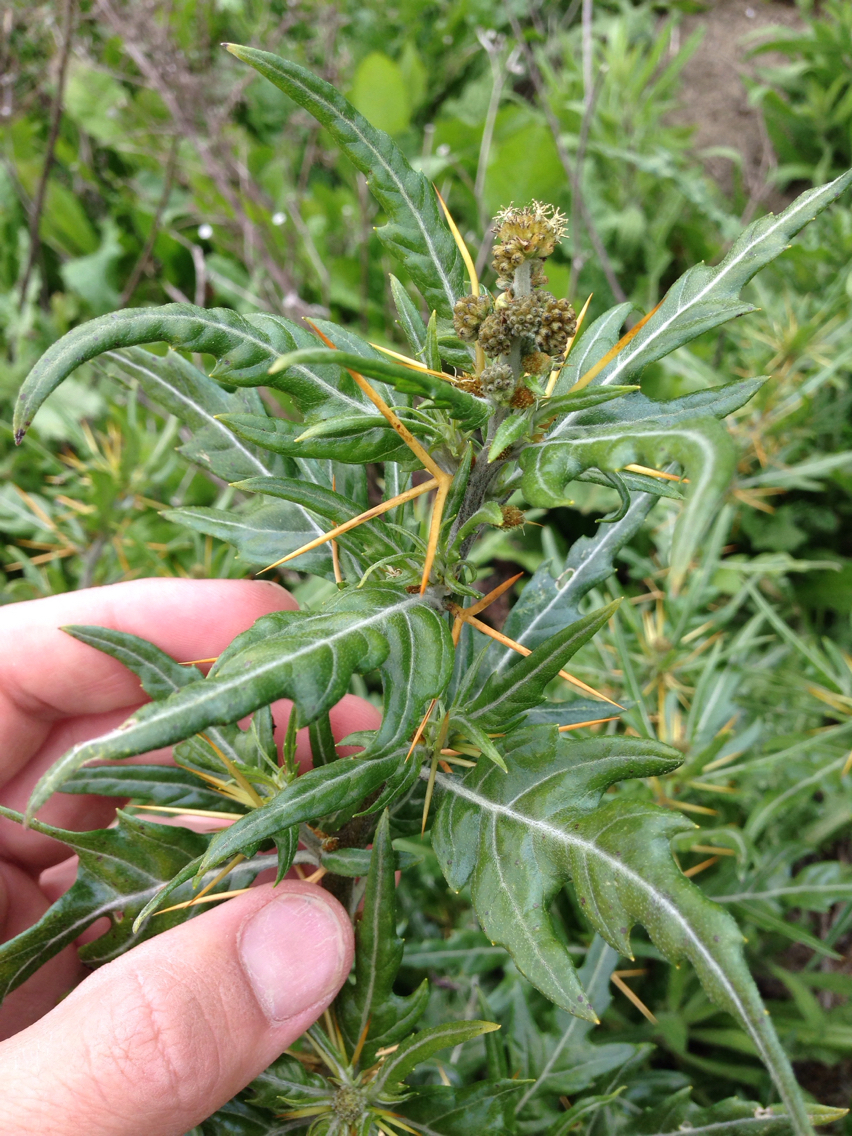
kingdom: Plantae
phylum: Tracheophyta
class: Magnoliopsida
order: Asterales
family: Asteraceae
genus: Xanthium
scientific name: Xanthium spinosum
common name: Spiny cocklebur
